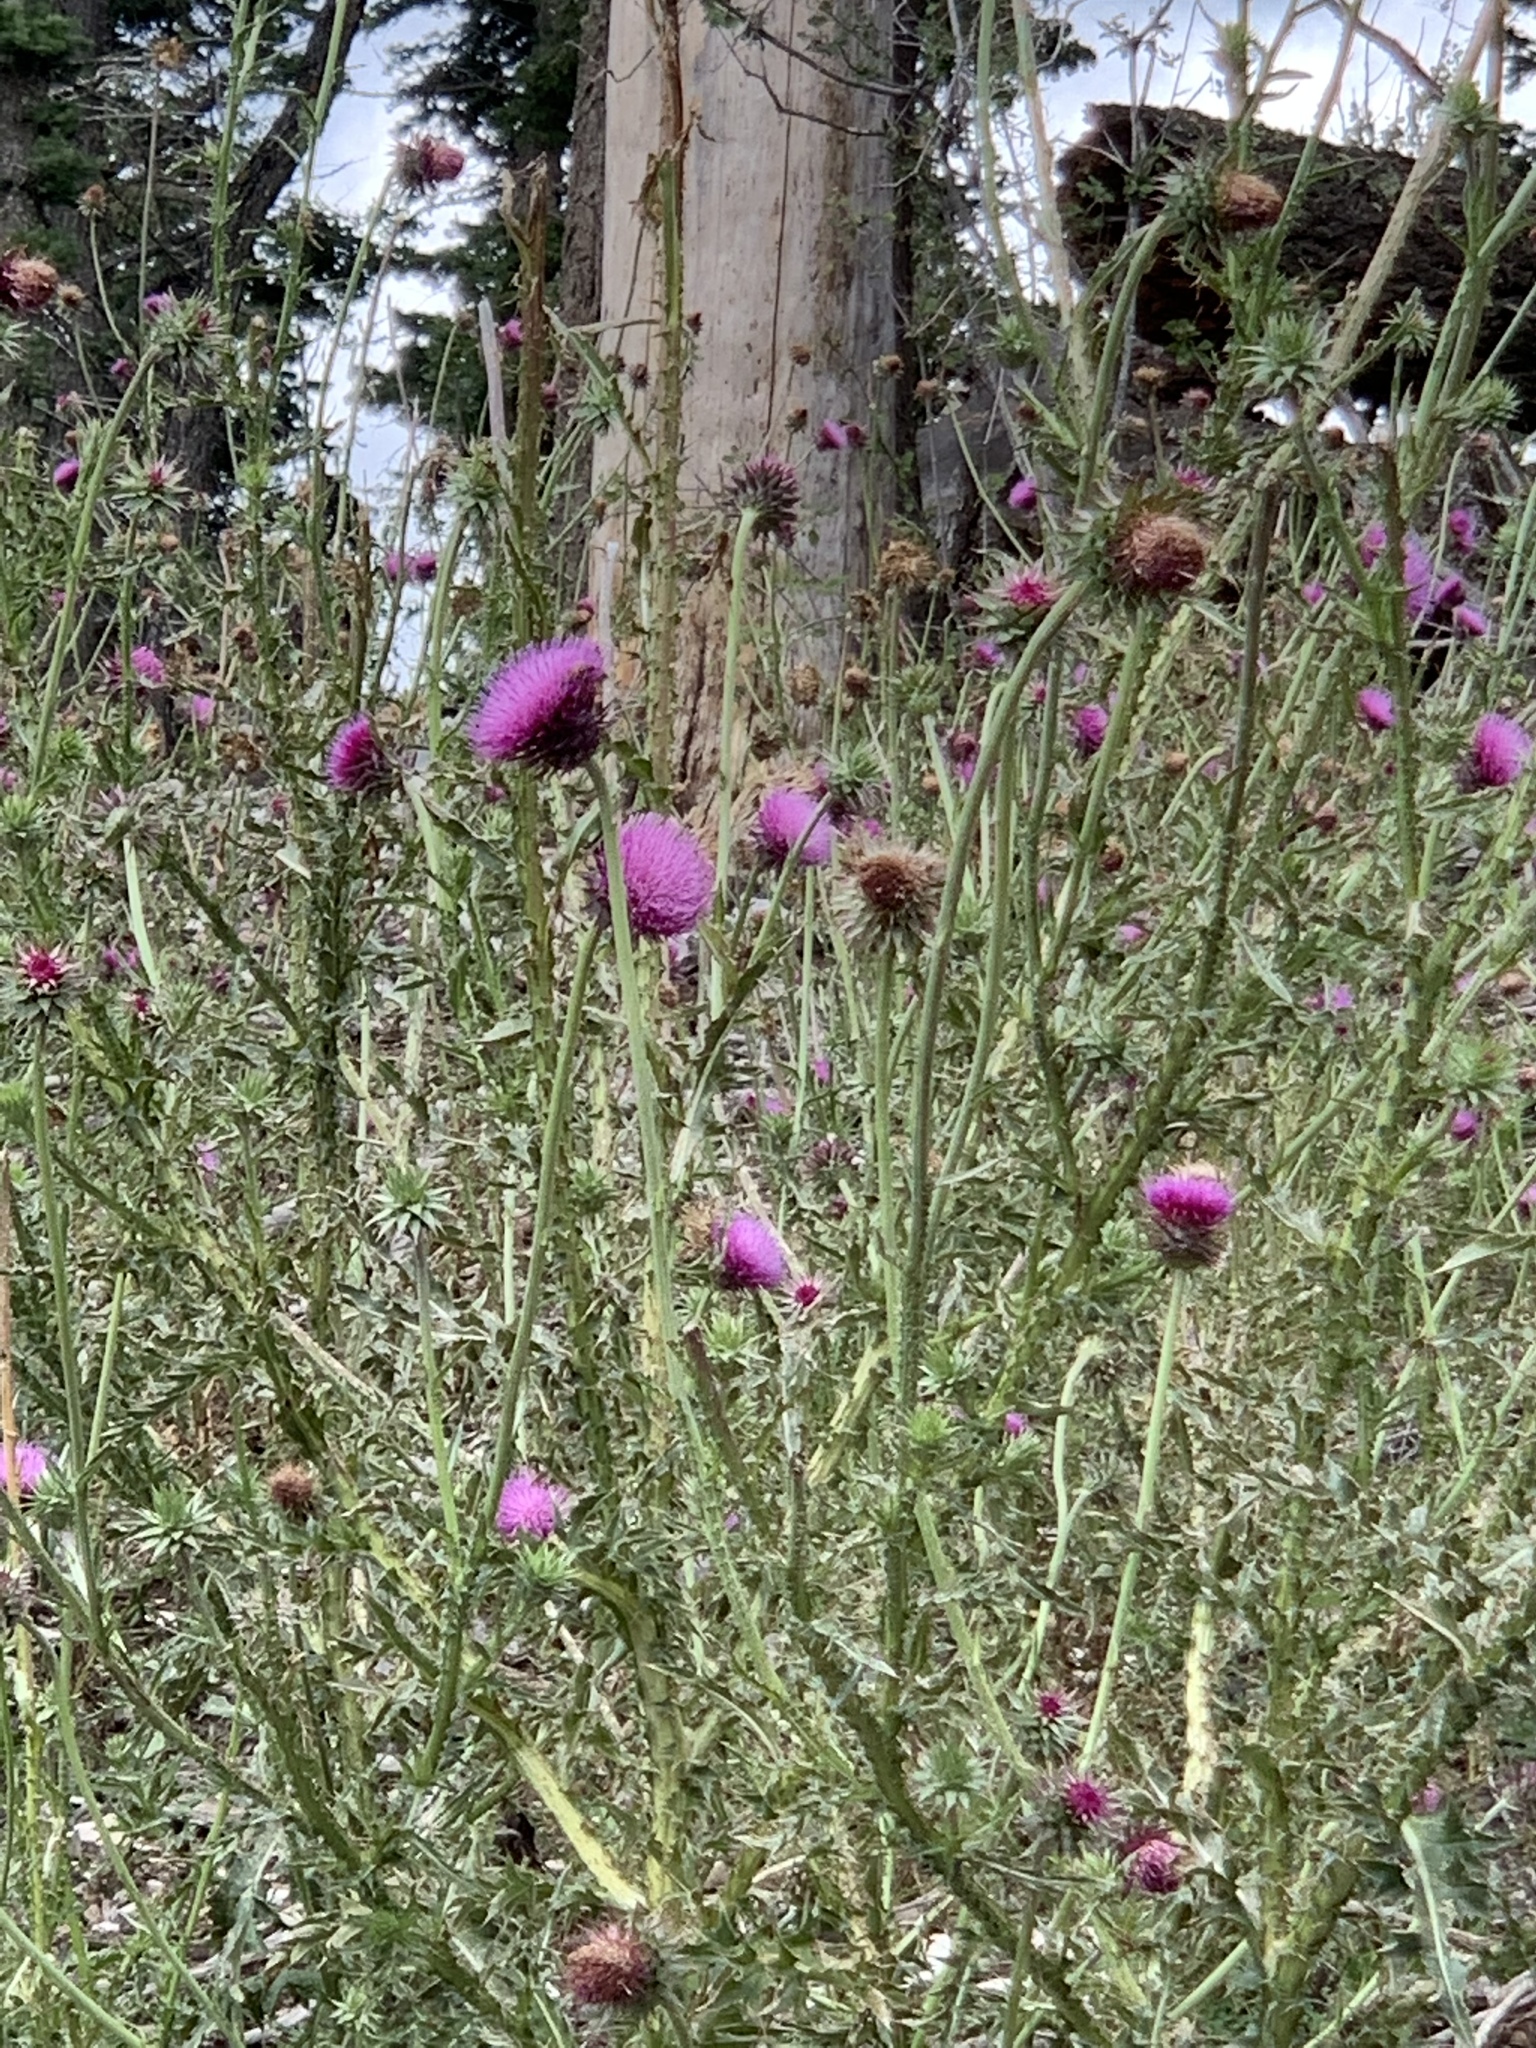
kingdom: Plantae
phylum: Tracheophyta
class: Magnoliopsida
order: Asterales
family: Asteraceae
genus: Carduus
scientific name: Carduus nutans
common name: Musk thistle
